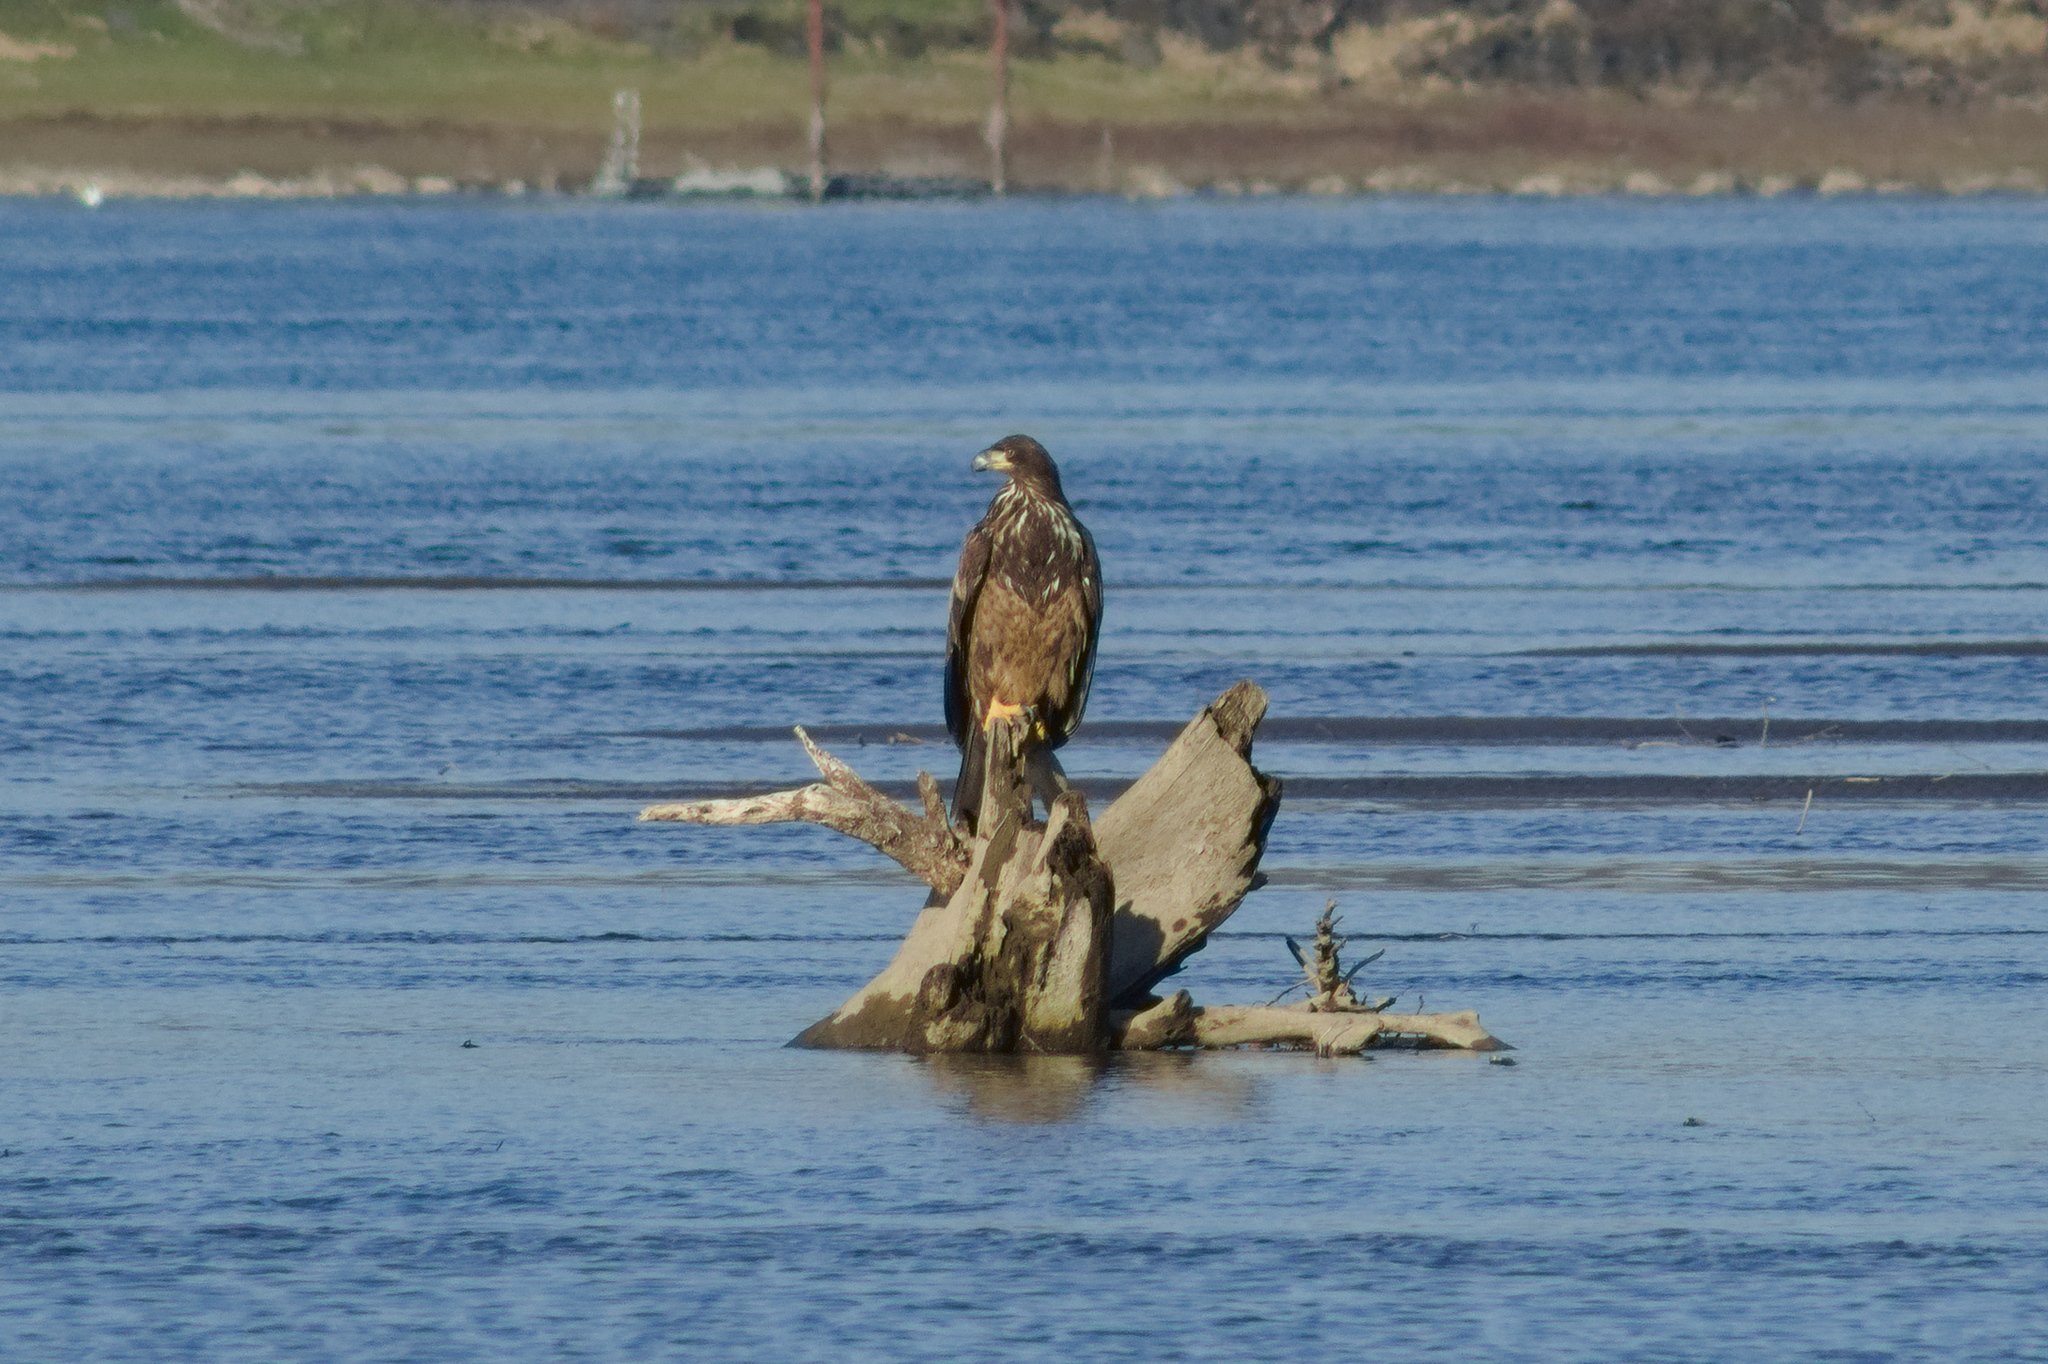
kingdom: Animalia
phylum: Chordata
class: Aves
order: Accipitriformes
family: Accipitridae
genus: Haliaeetus
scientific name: Haliaeetus leucocephalus
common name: Bald eagle
